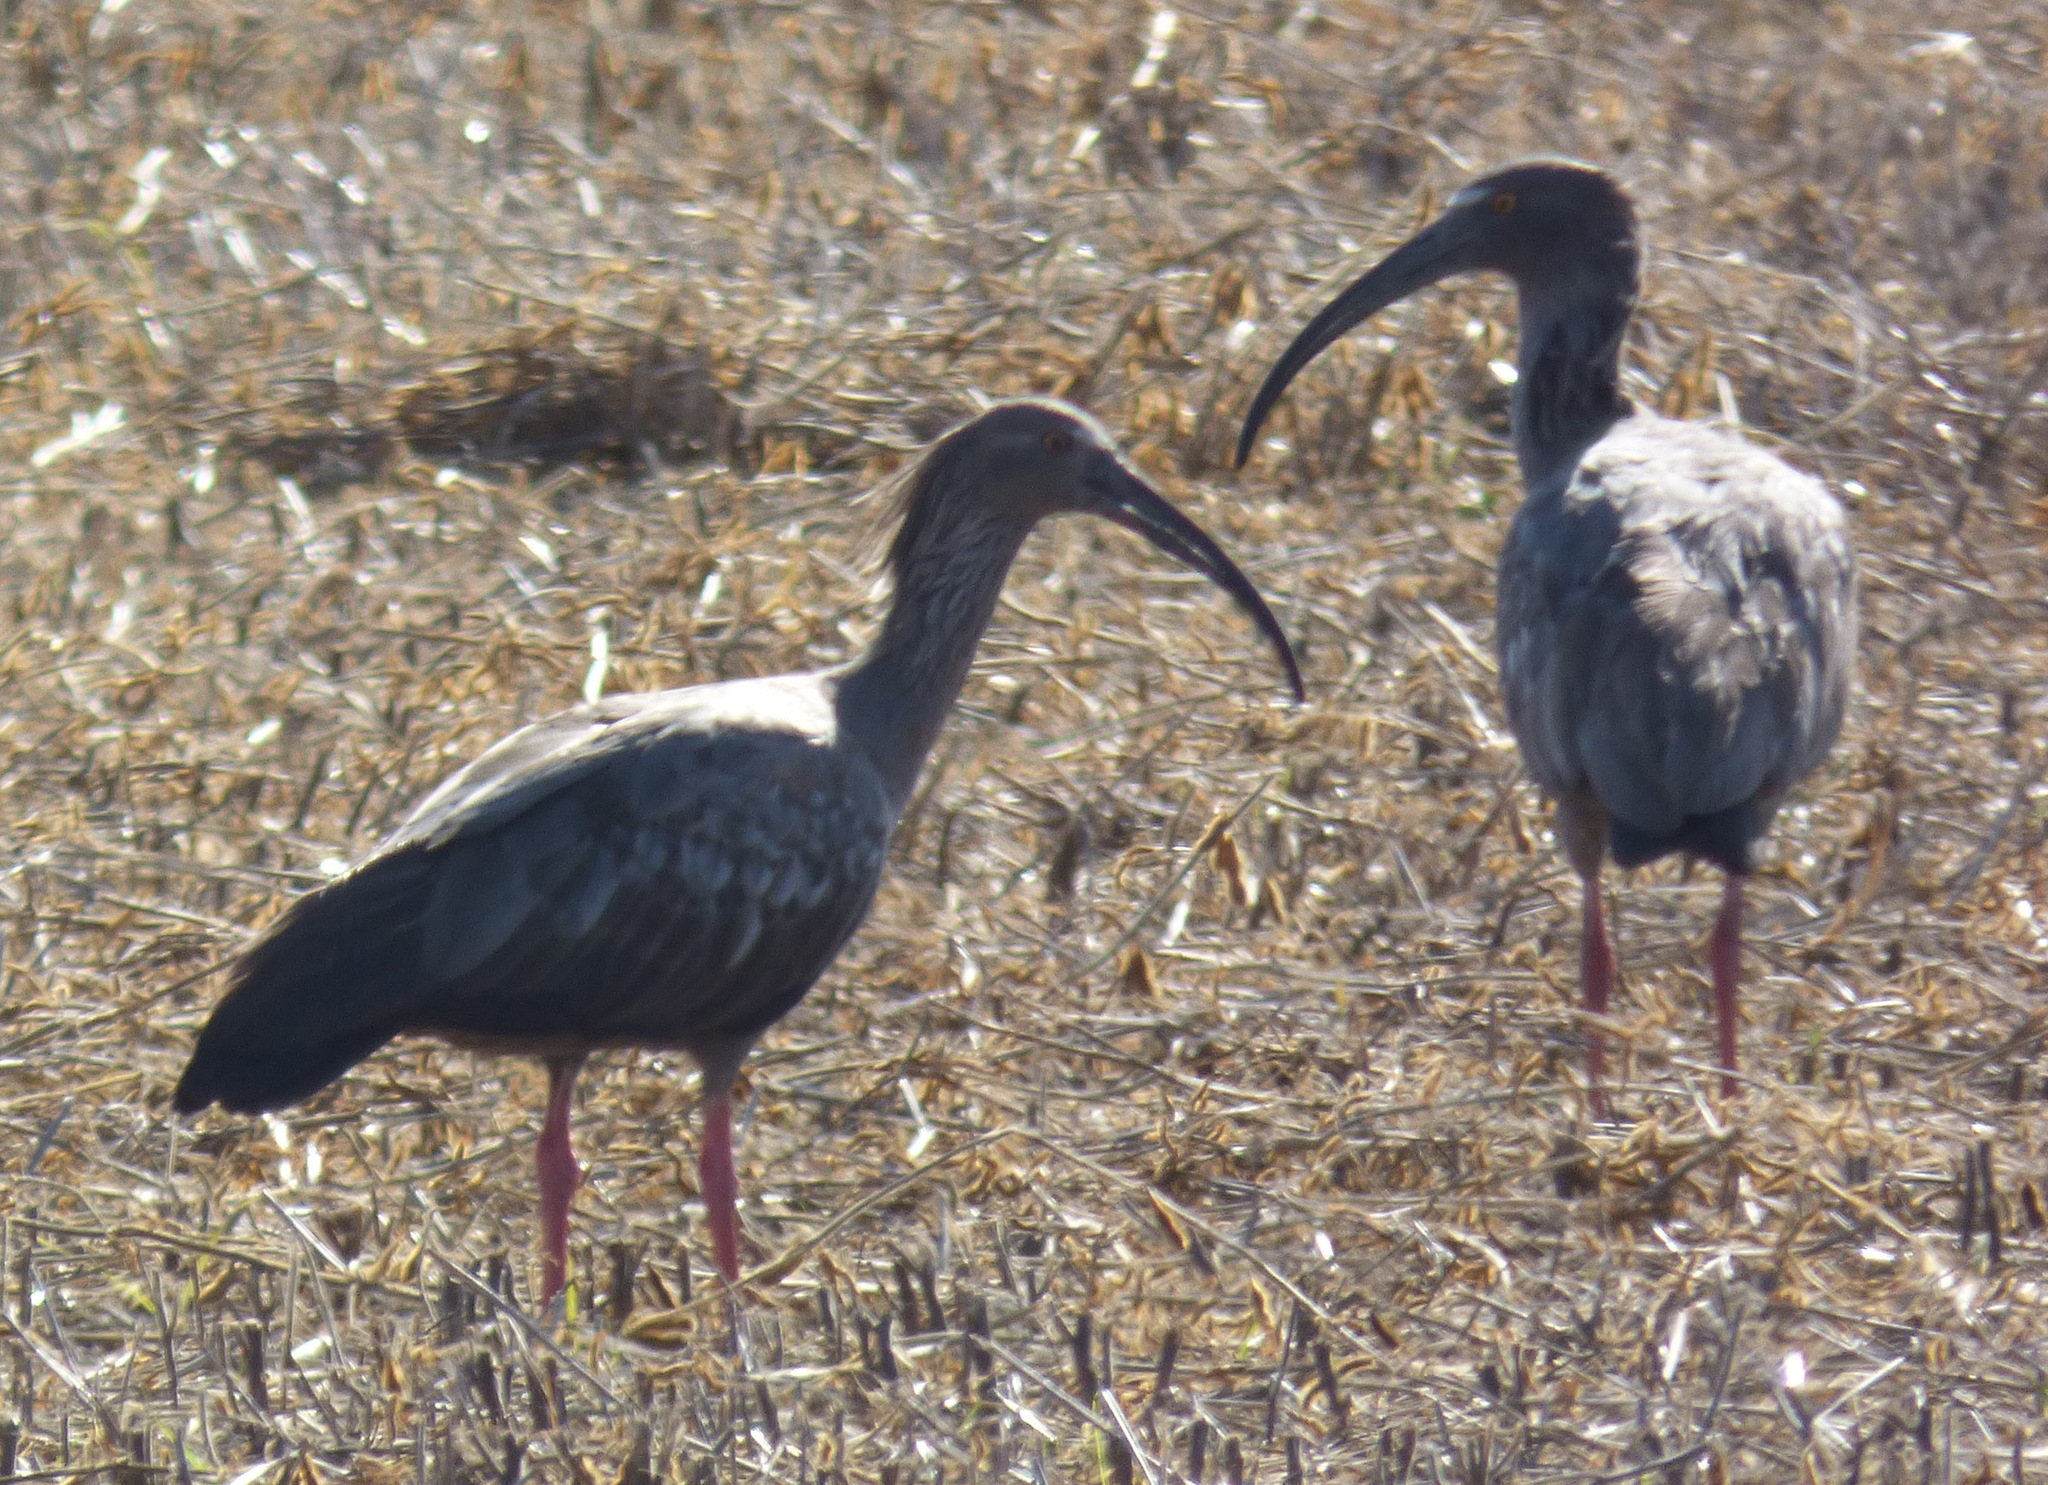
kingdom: Animalia
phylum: Chordata
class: Aves
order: Pelecaniformes
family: Threskiornithidae
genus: Theristicus
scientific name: Theristicus caerulescens
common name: Plumbeous ibis
